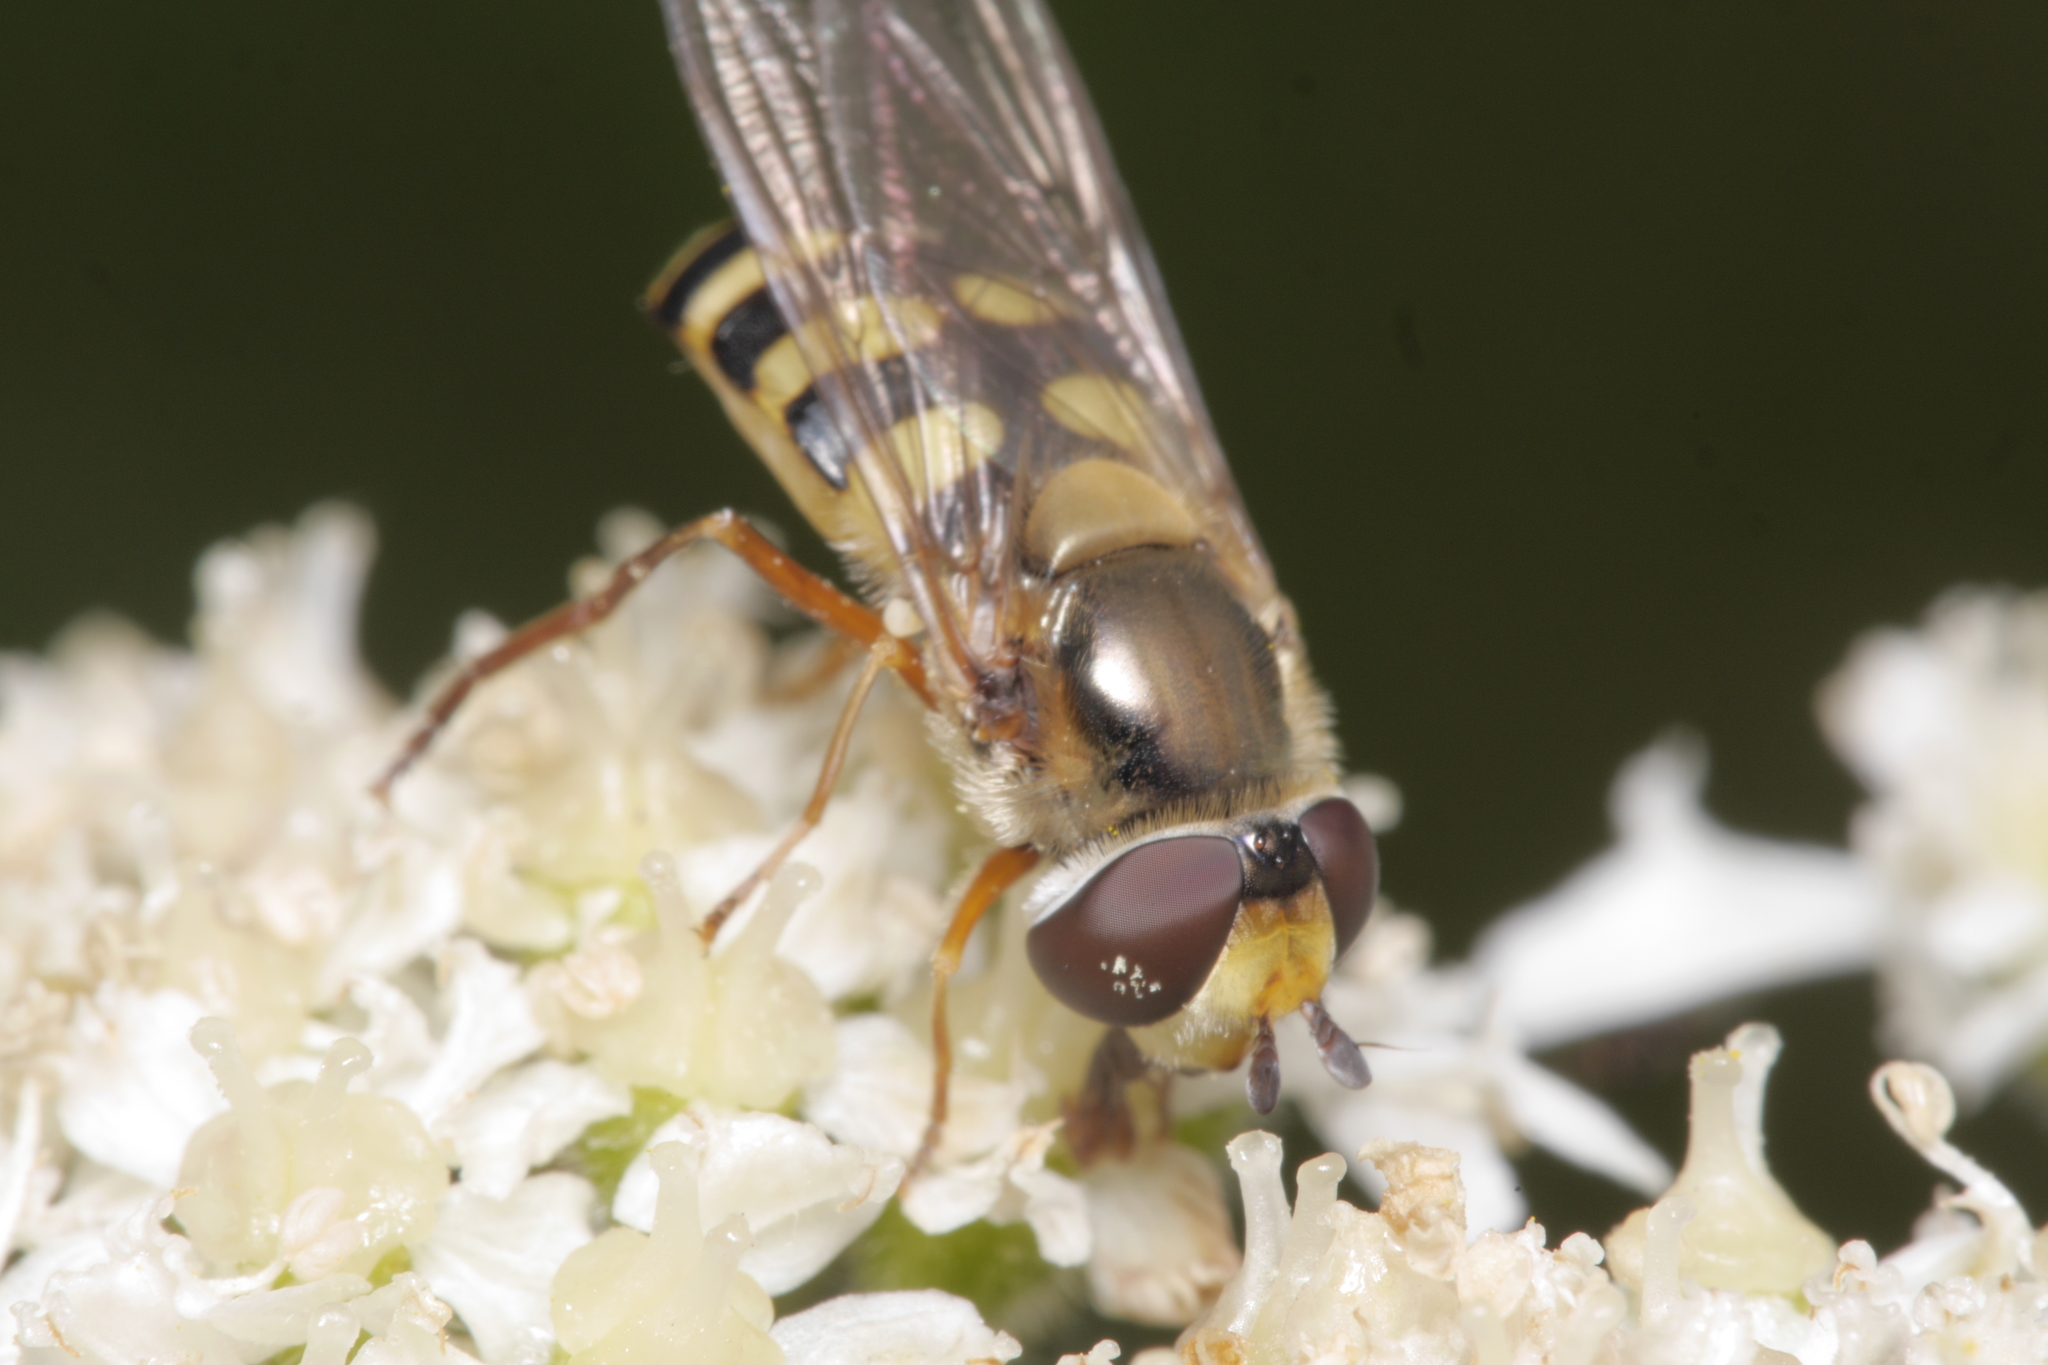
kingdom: Animalia
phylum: Arthropoda
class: Insecta
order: Diptera
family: Syrphidae
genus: Syrphus
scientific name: Syrphus ribesii
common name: Common flower fly
